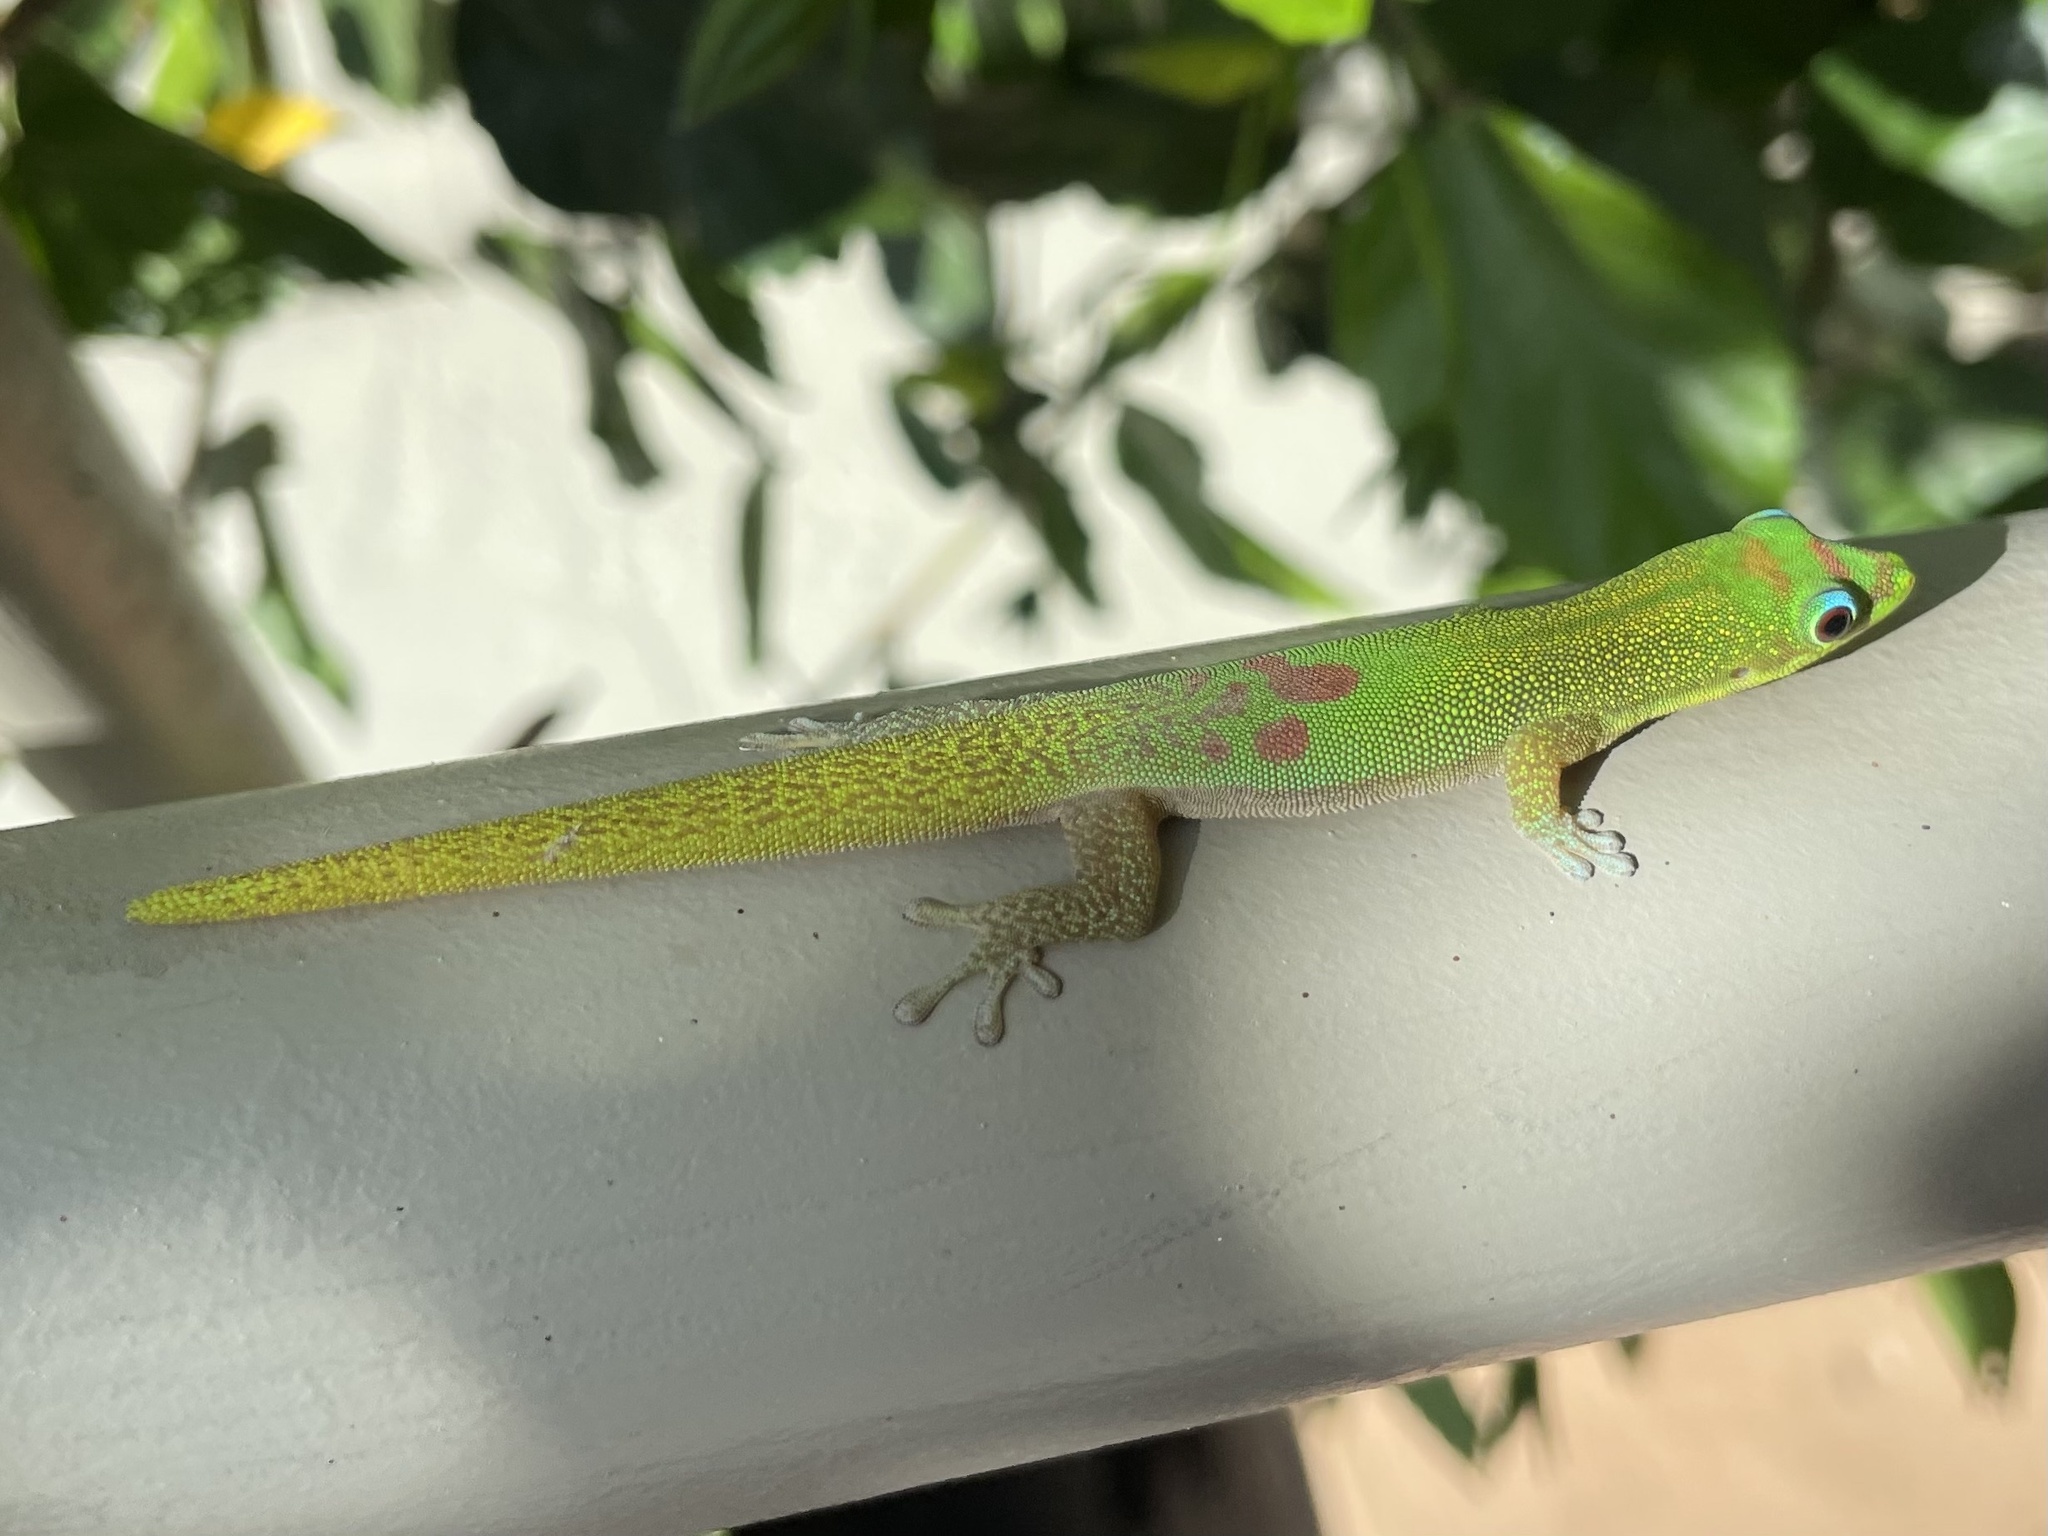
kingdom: Animalia
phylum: Chordata
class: Squamata
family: Gekkonidae
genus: Phelsuma
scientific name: Phelsuma laticauda
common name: Gold dust day gecko
